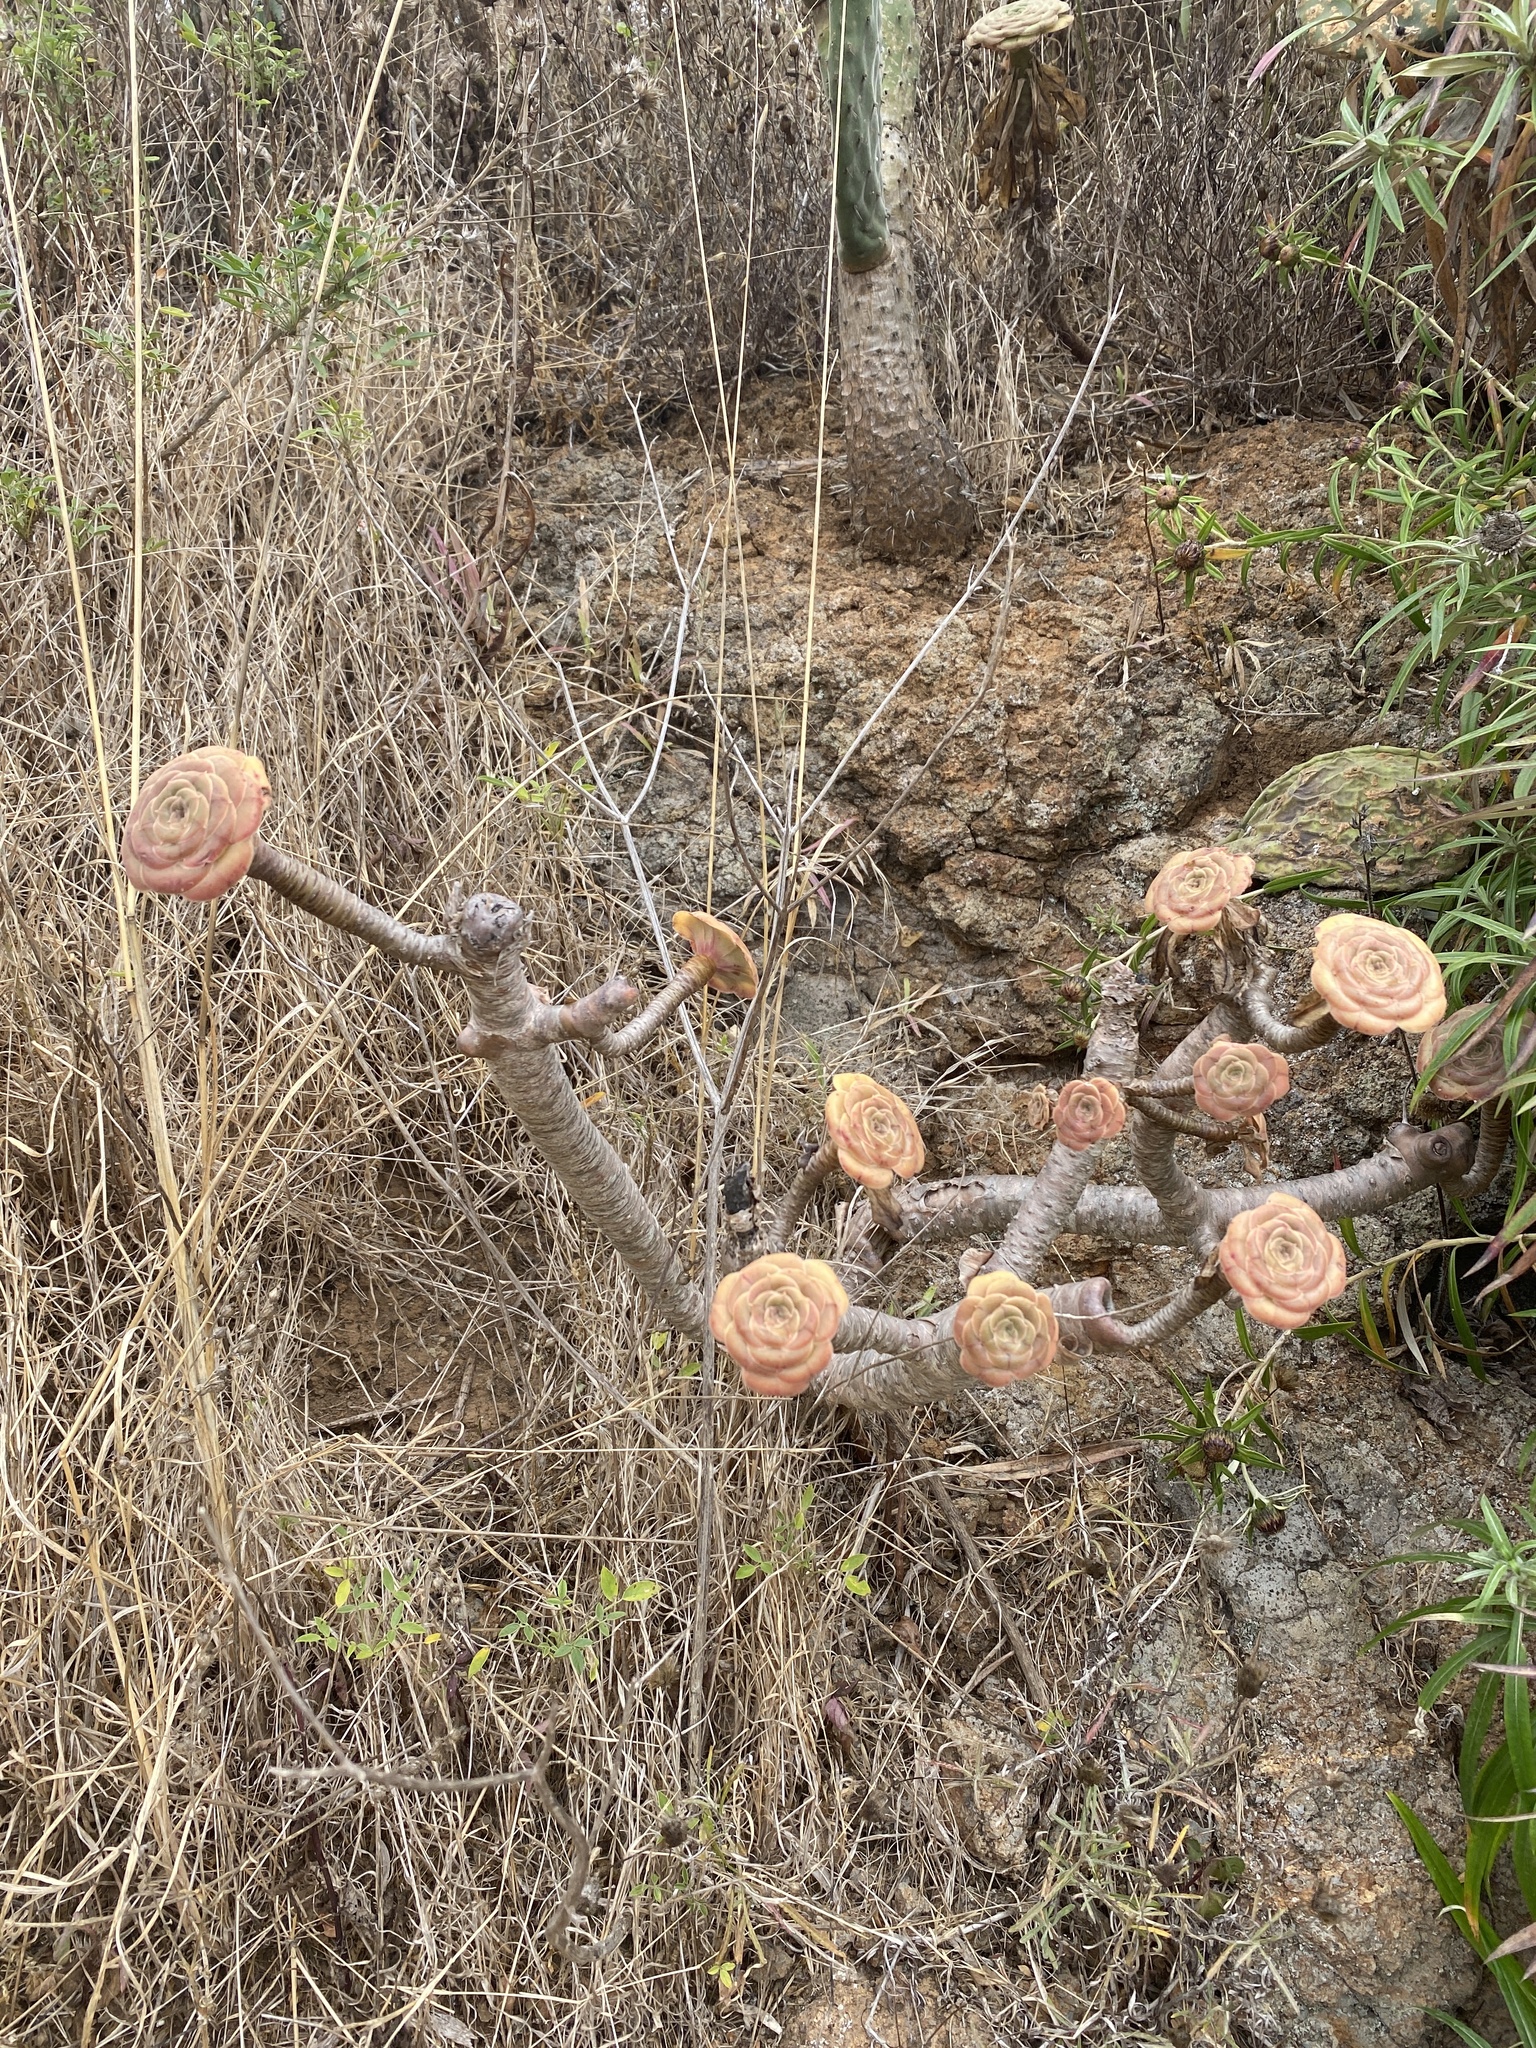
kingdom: Plantae
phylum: Tracheophyta
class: Magnoliopsida
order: Saxifragales
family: Crassulaceae
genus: Aeonium
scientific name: Aeonium arboreum
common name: Tree aeonium
